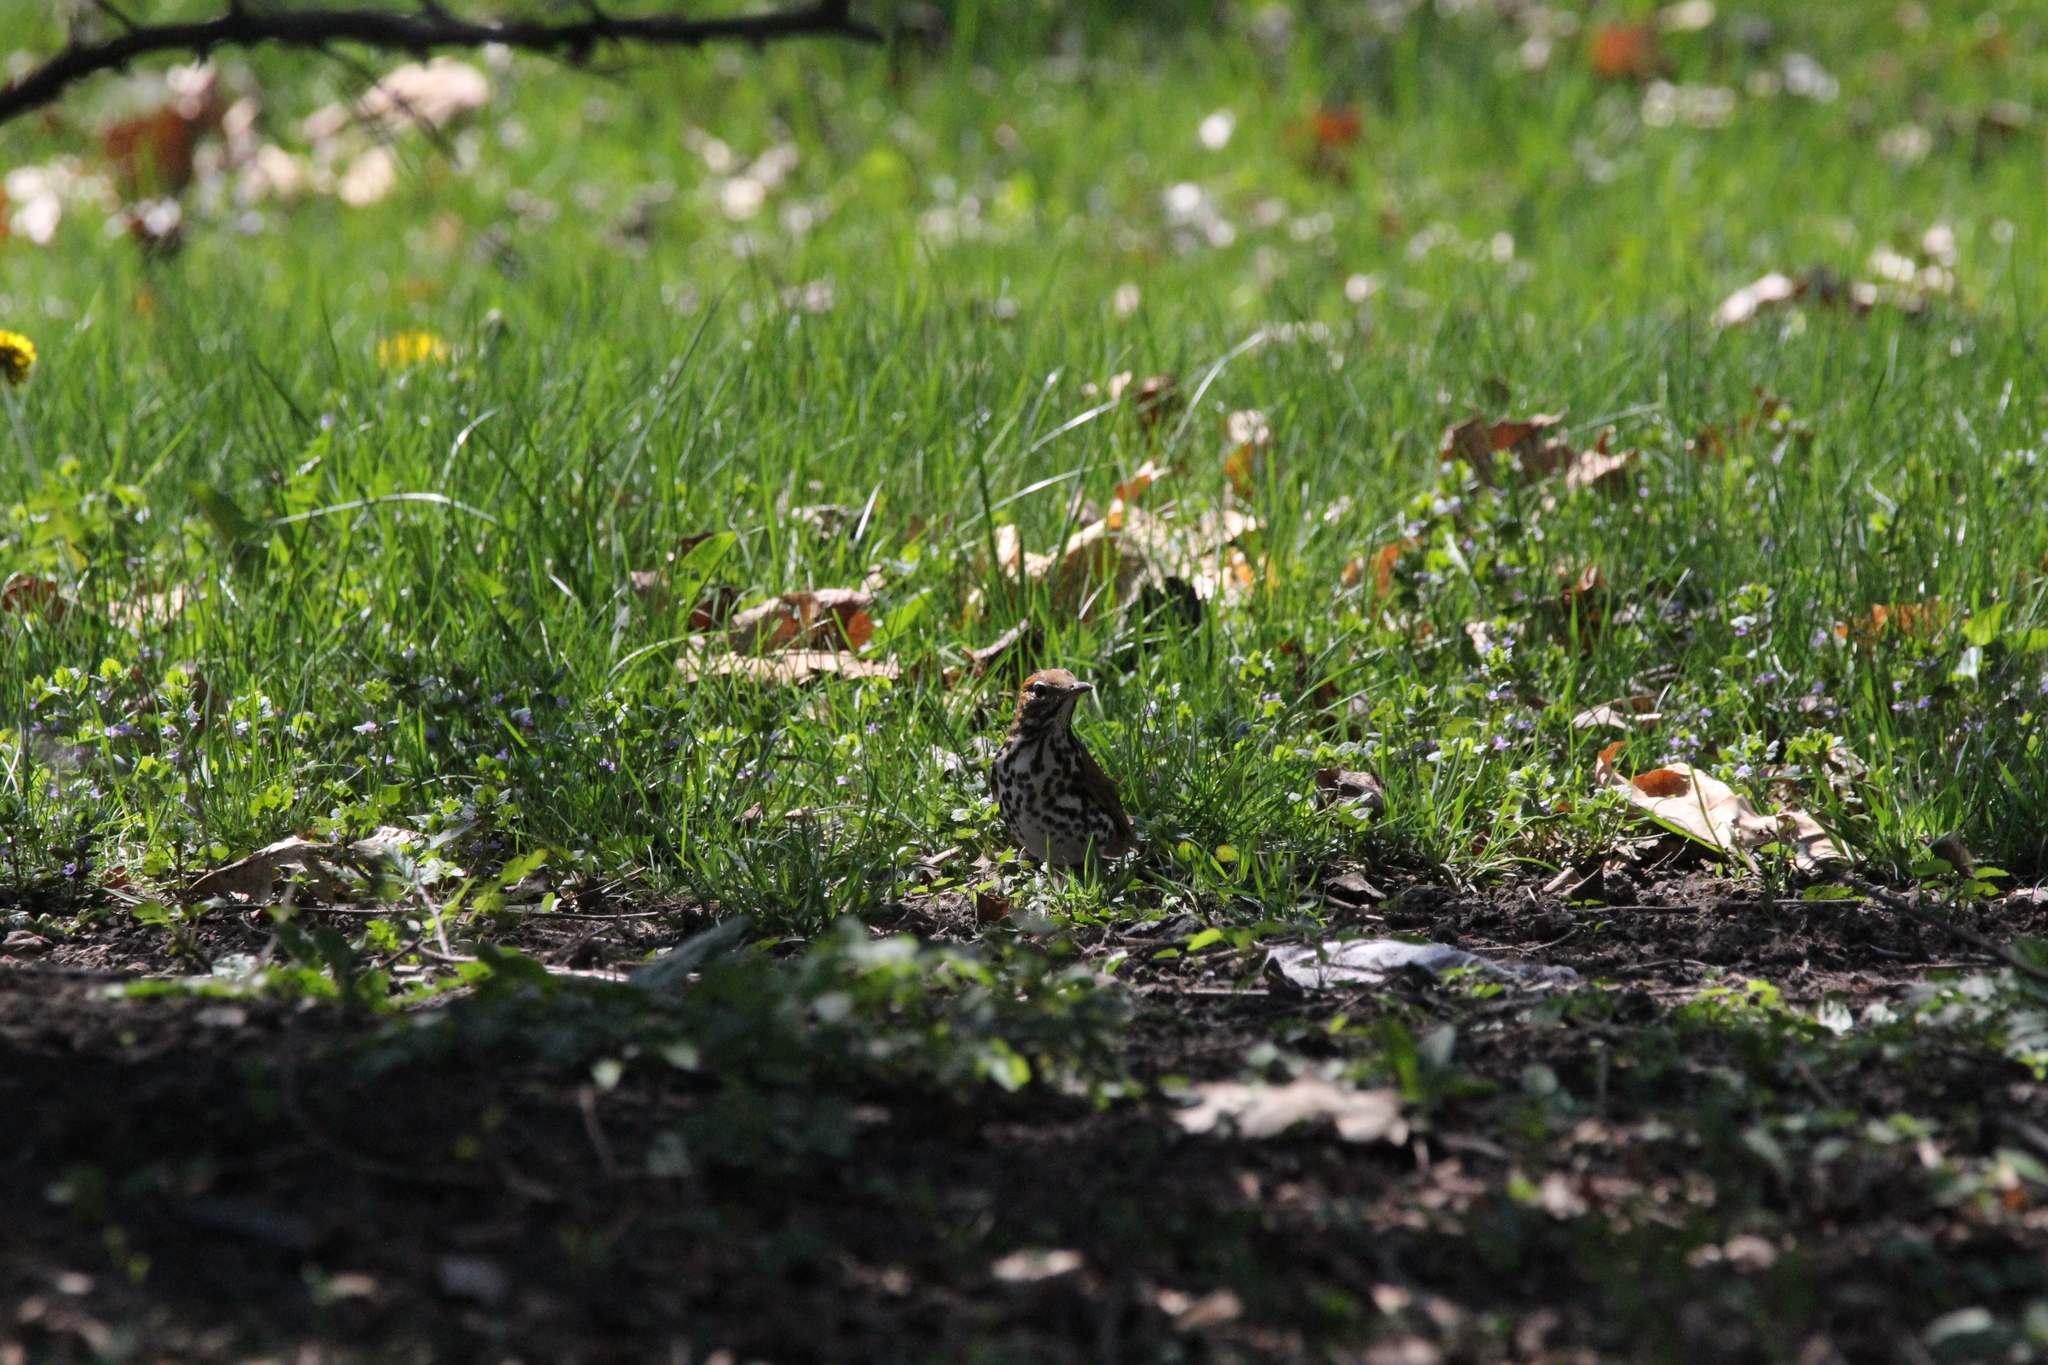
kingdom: Animalia
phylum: Chordata
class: Aves
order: Passeriformes
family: Turdidae
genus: Hylocichla
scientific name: Hylocichla mustelina
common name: Wood thrush
